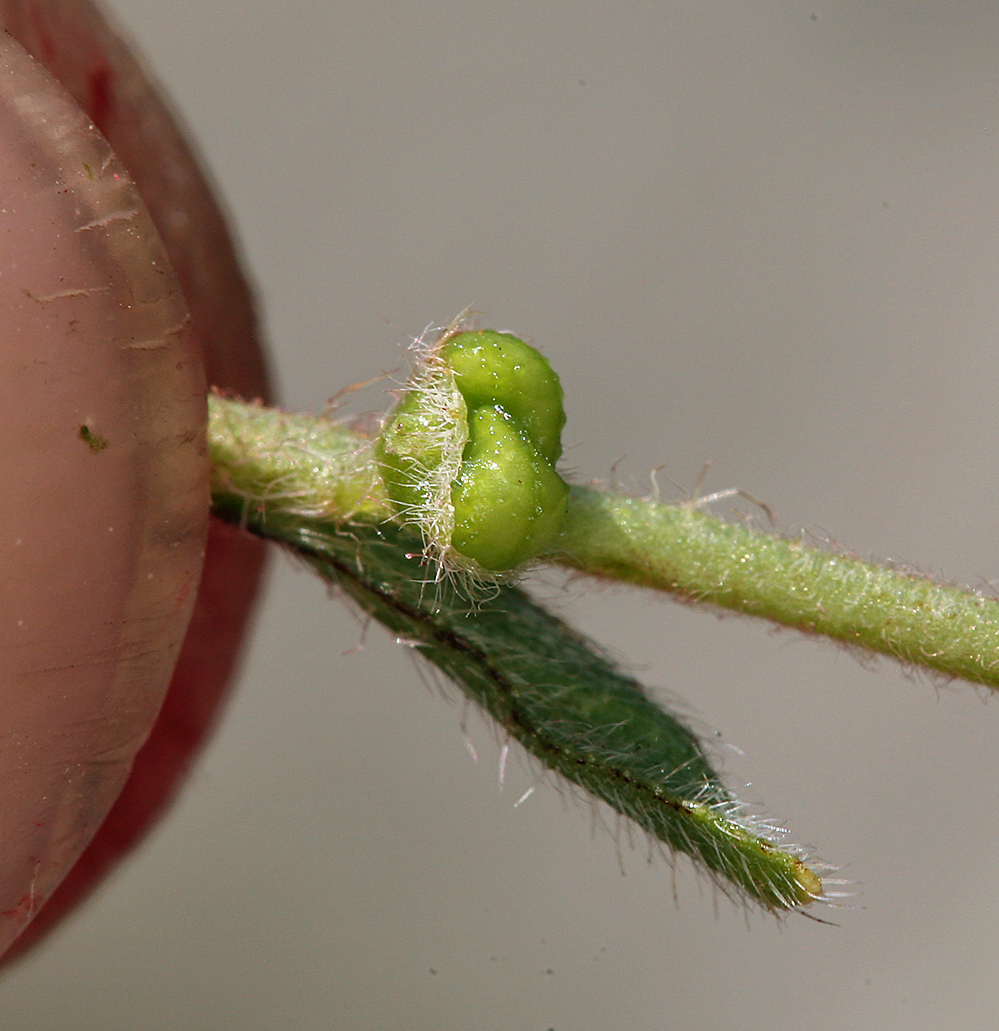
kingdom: Plantae
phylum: Tracheophyta
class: Magnoliopsida
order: Boraginales
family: Boraginaceae
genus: Plagiobothrys
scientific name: Plagiobothrys arizonicus
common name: Arizona popcorn-flower
